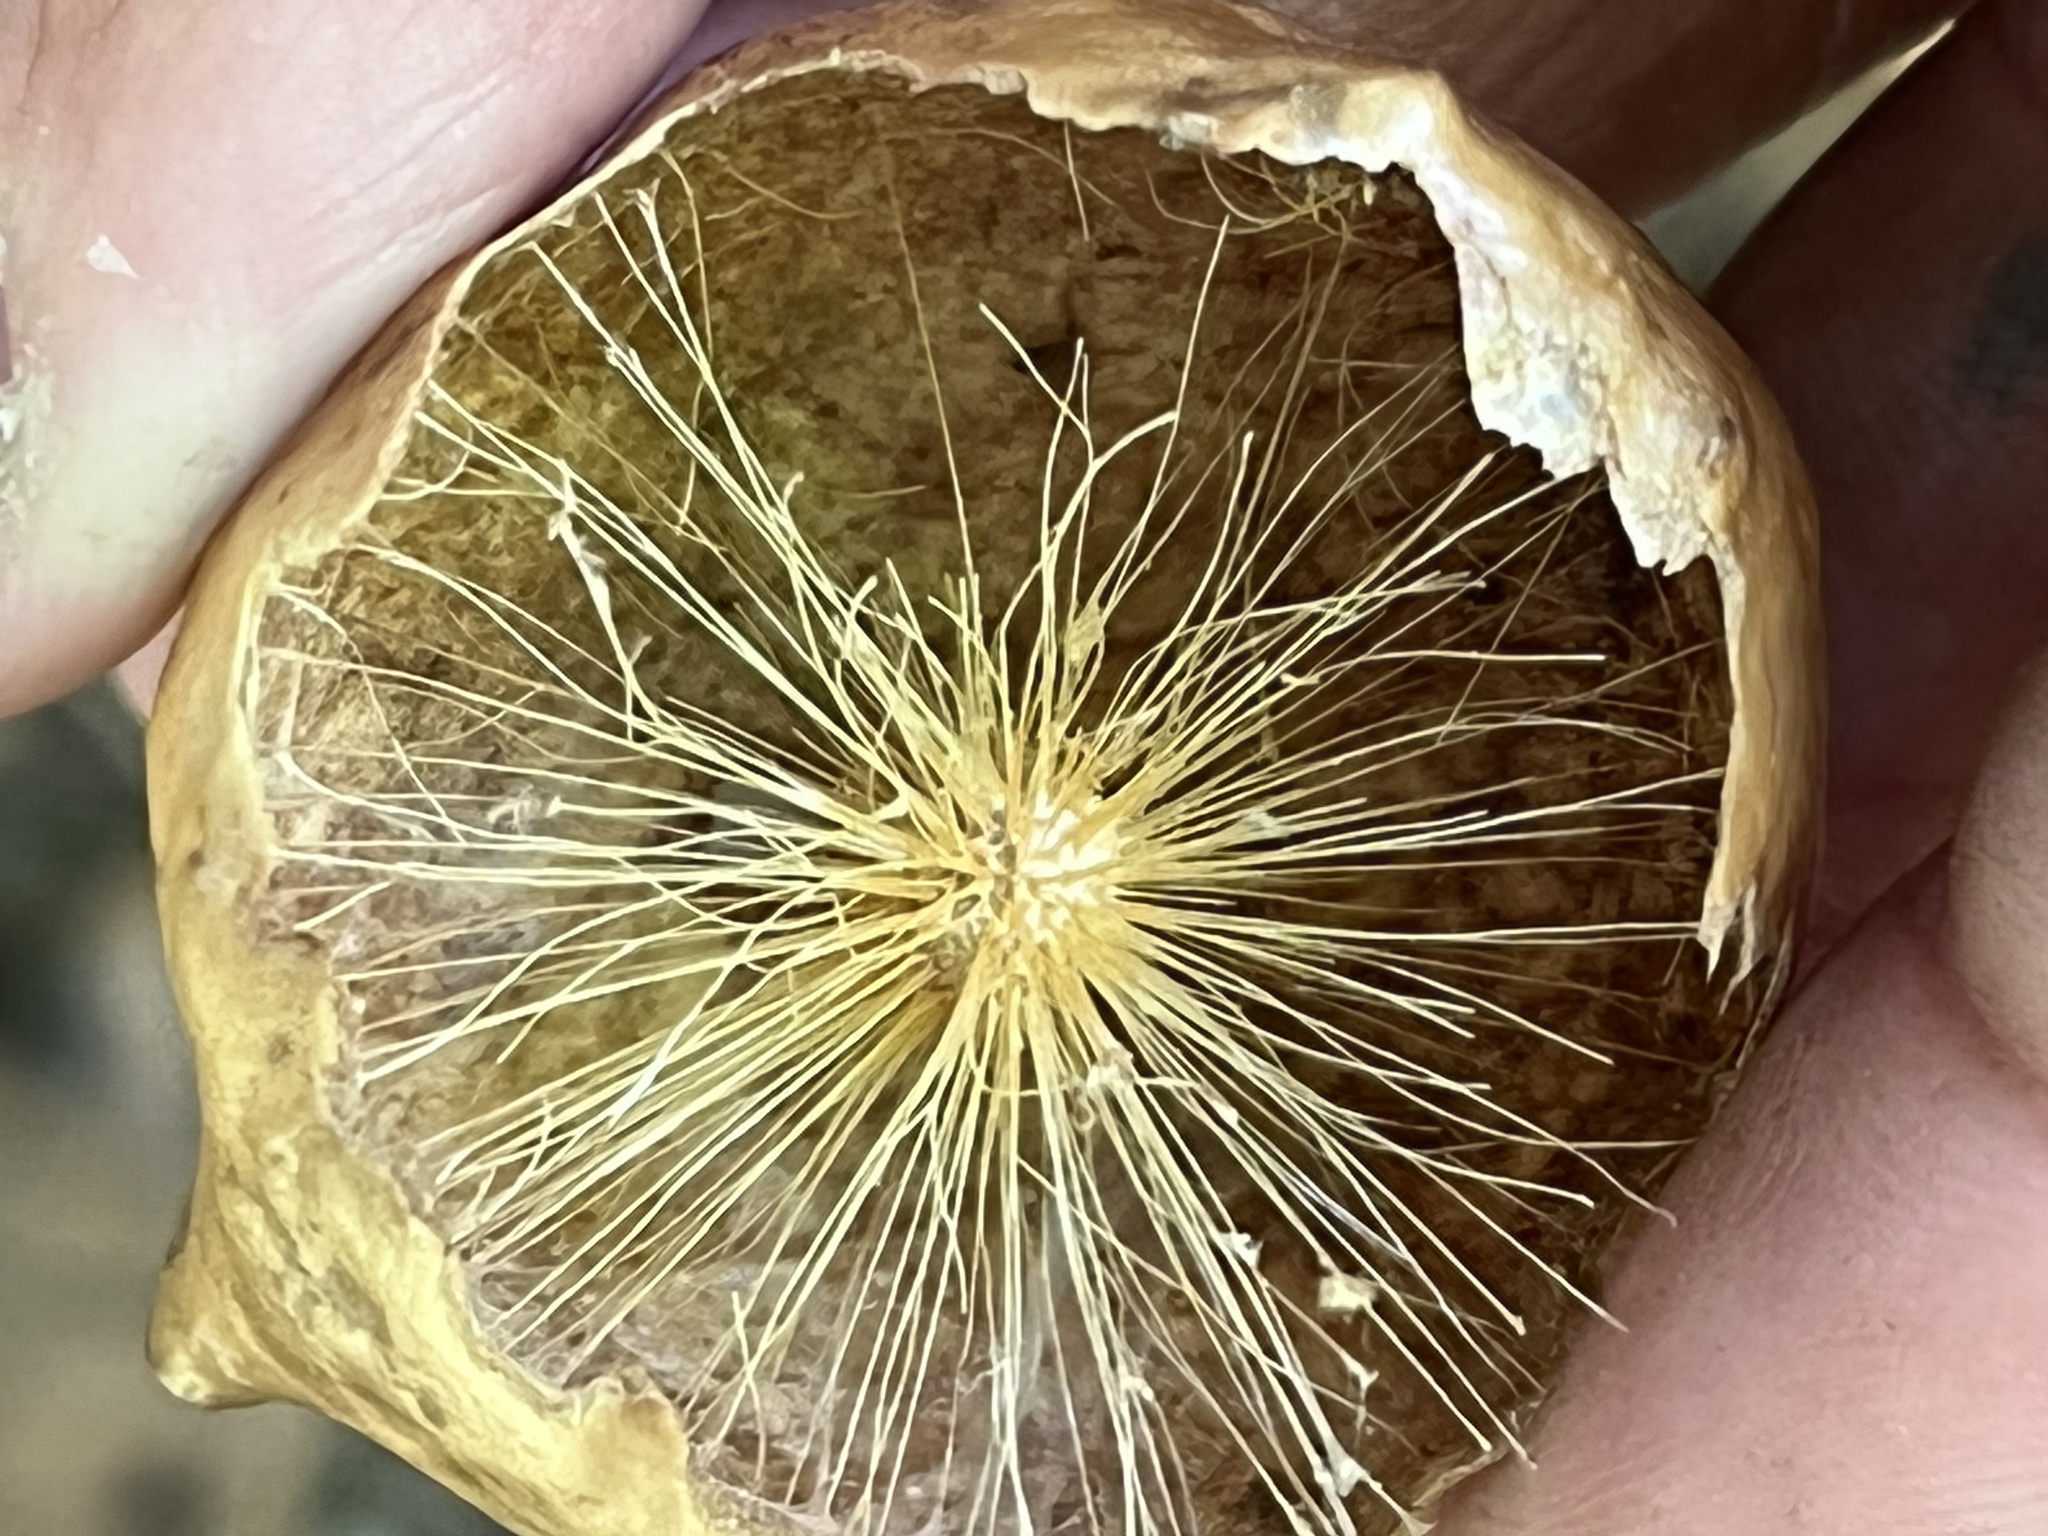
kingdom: Animalia
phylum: Arthropoda
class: Insecta
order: Hymenoptera
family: Cynipidae
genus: Amphibolips
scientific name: Amphibolips
